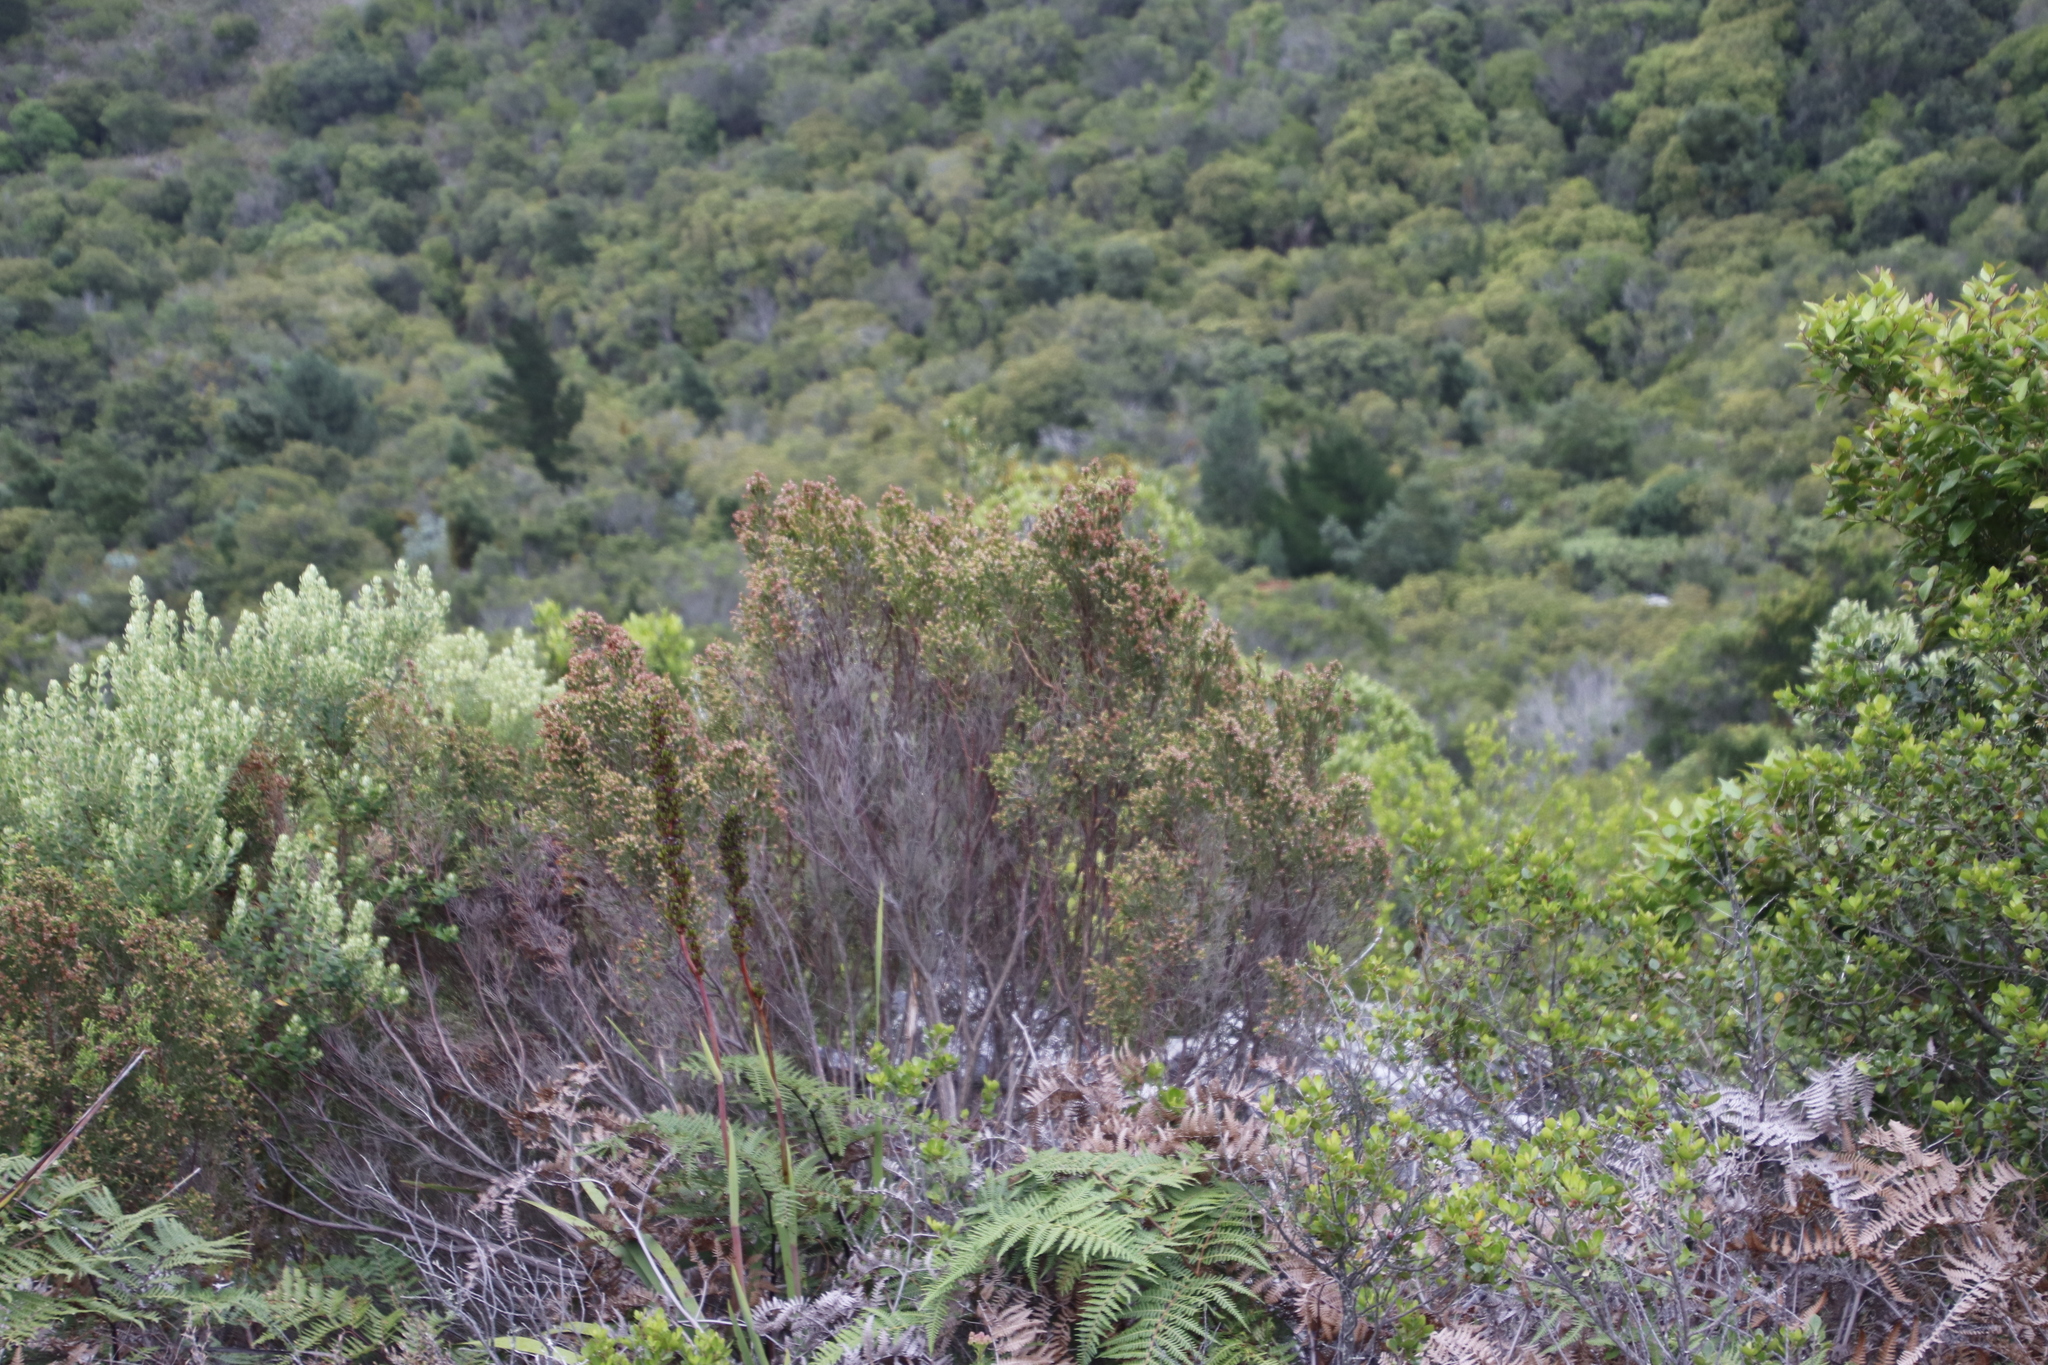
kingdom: Plantae
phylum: Tracheophyta
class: Magnoliopsida
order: Malvales
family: Thymelaeaceae
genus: Passerina
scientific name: Passerina corymbosa
